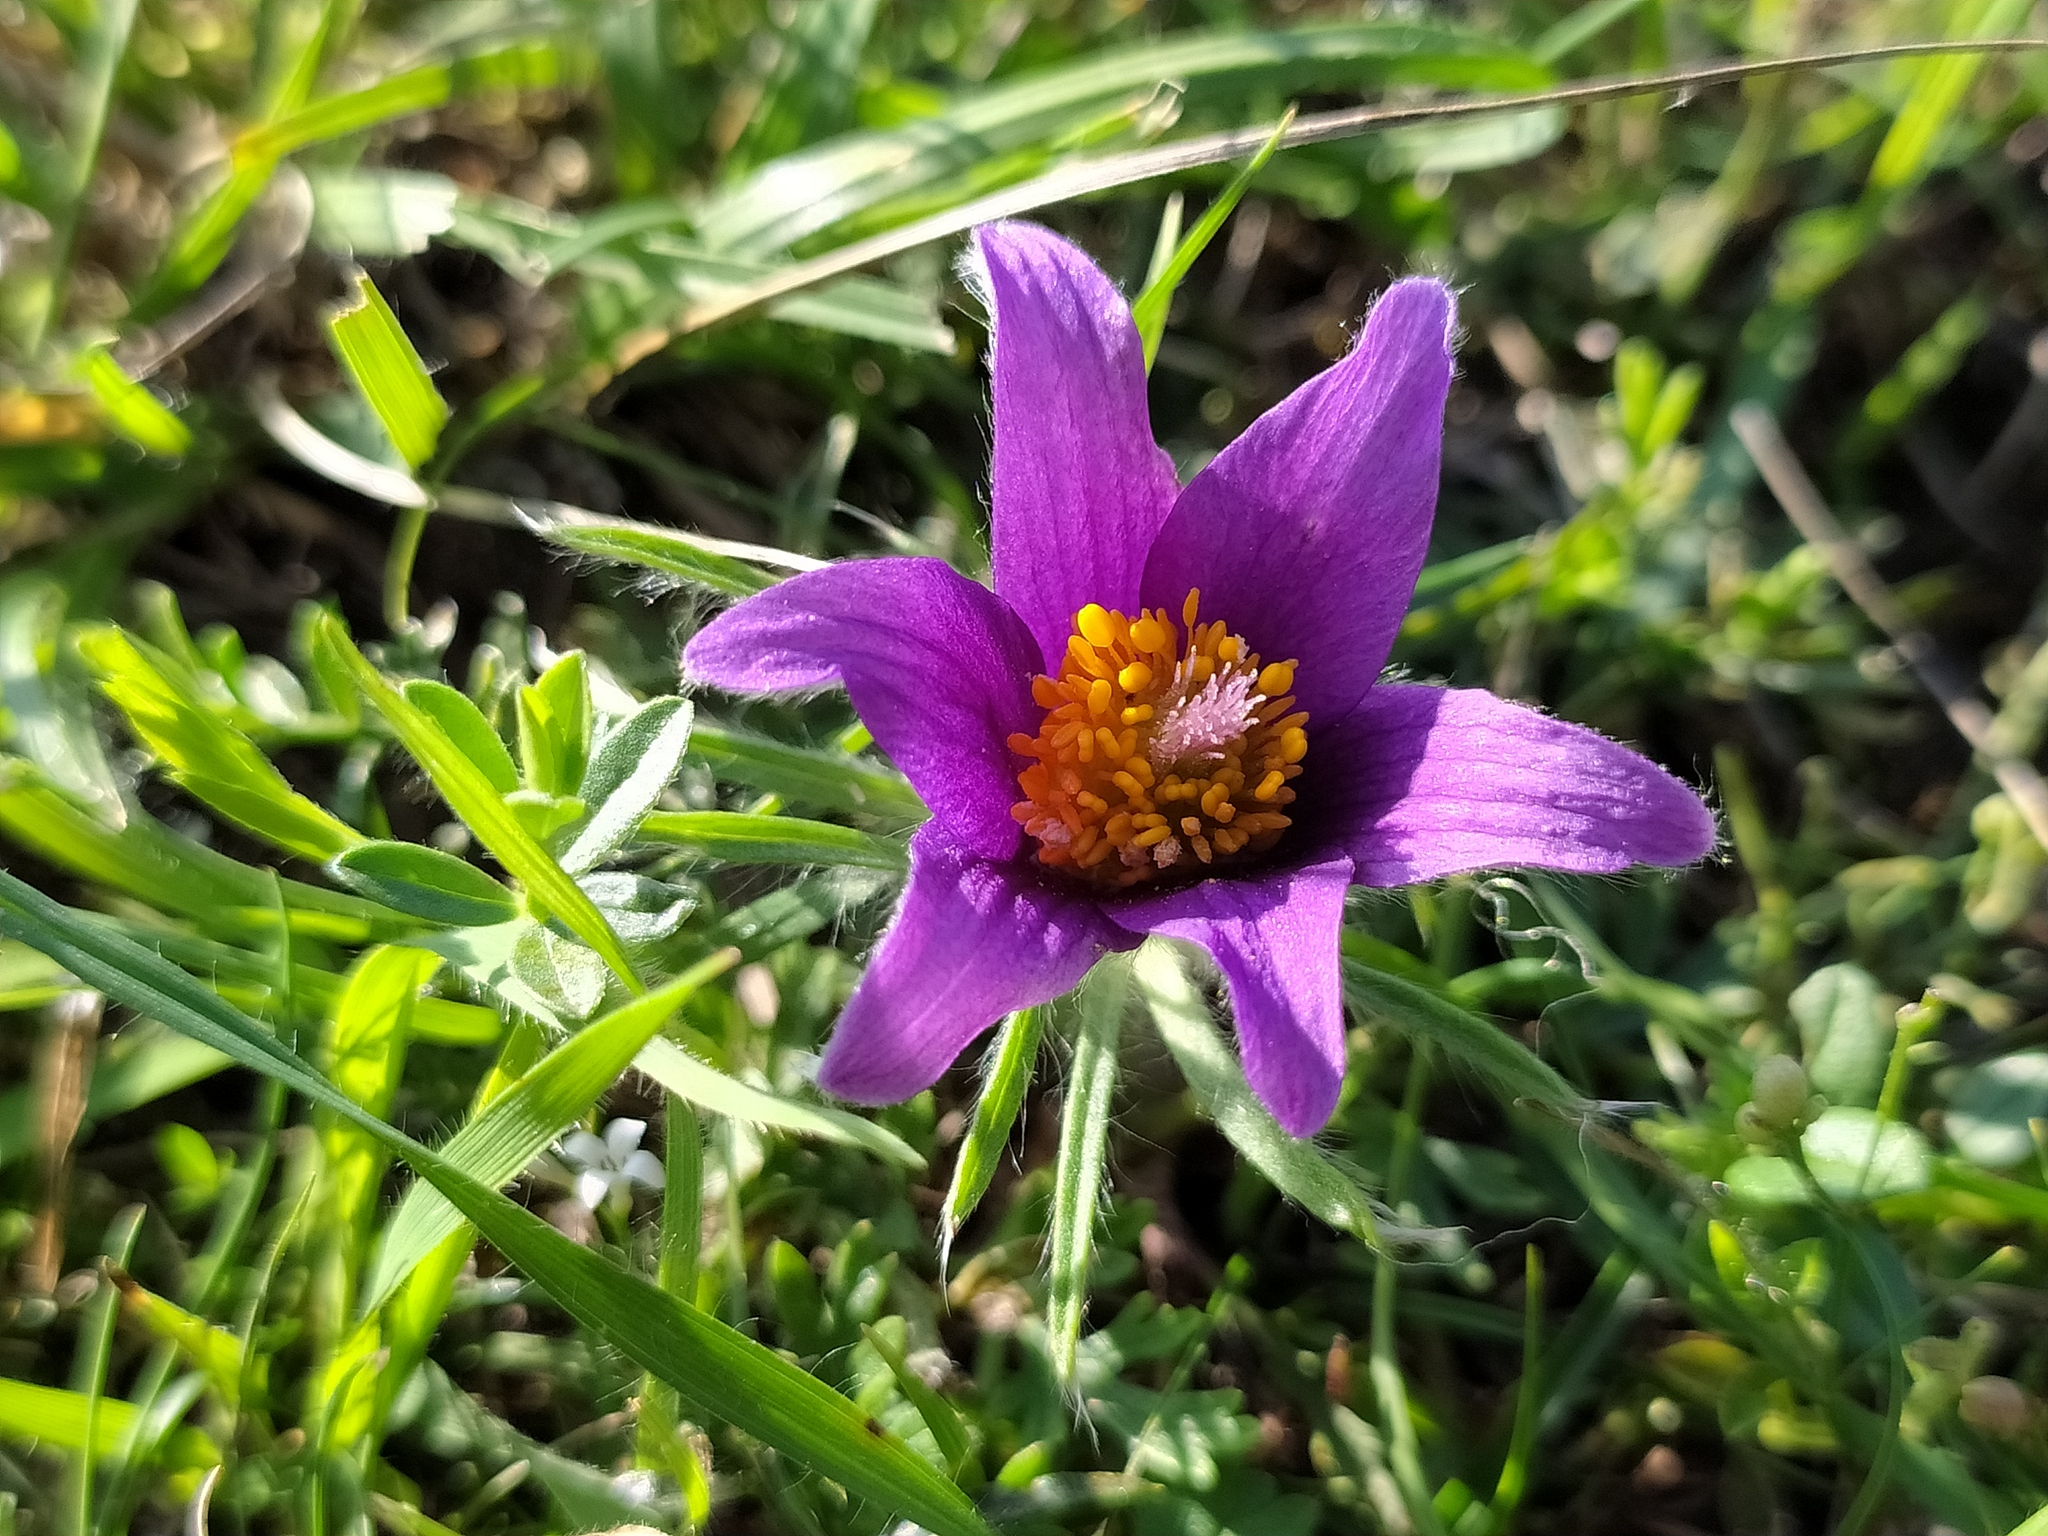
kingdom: Plantae
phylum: Tracheophyta
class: Magnoliopsida
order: Ranunculales
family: Ranunculaceae
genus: Pulsatilla
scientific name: Pulsatilla vulgaris
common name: Pasqueflower
